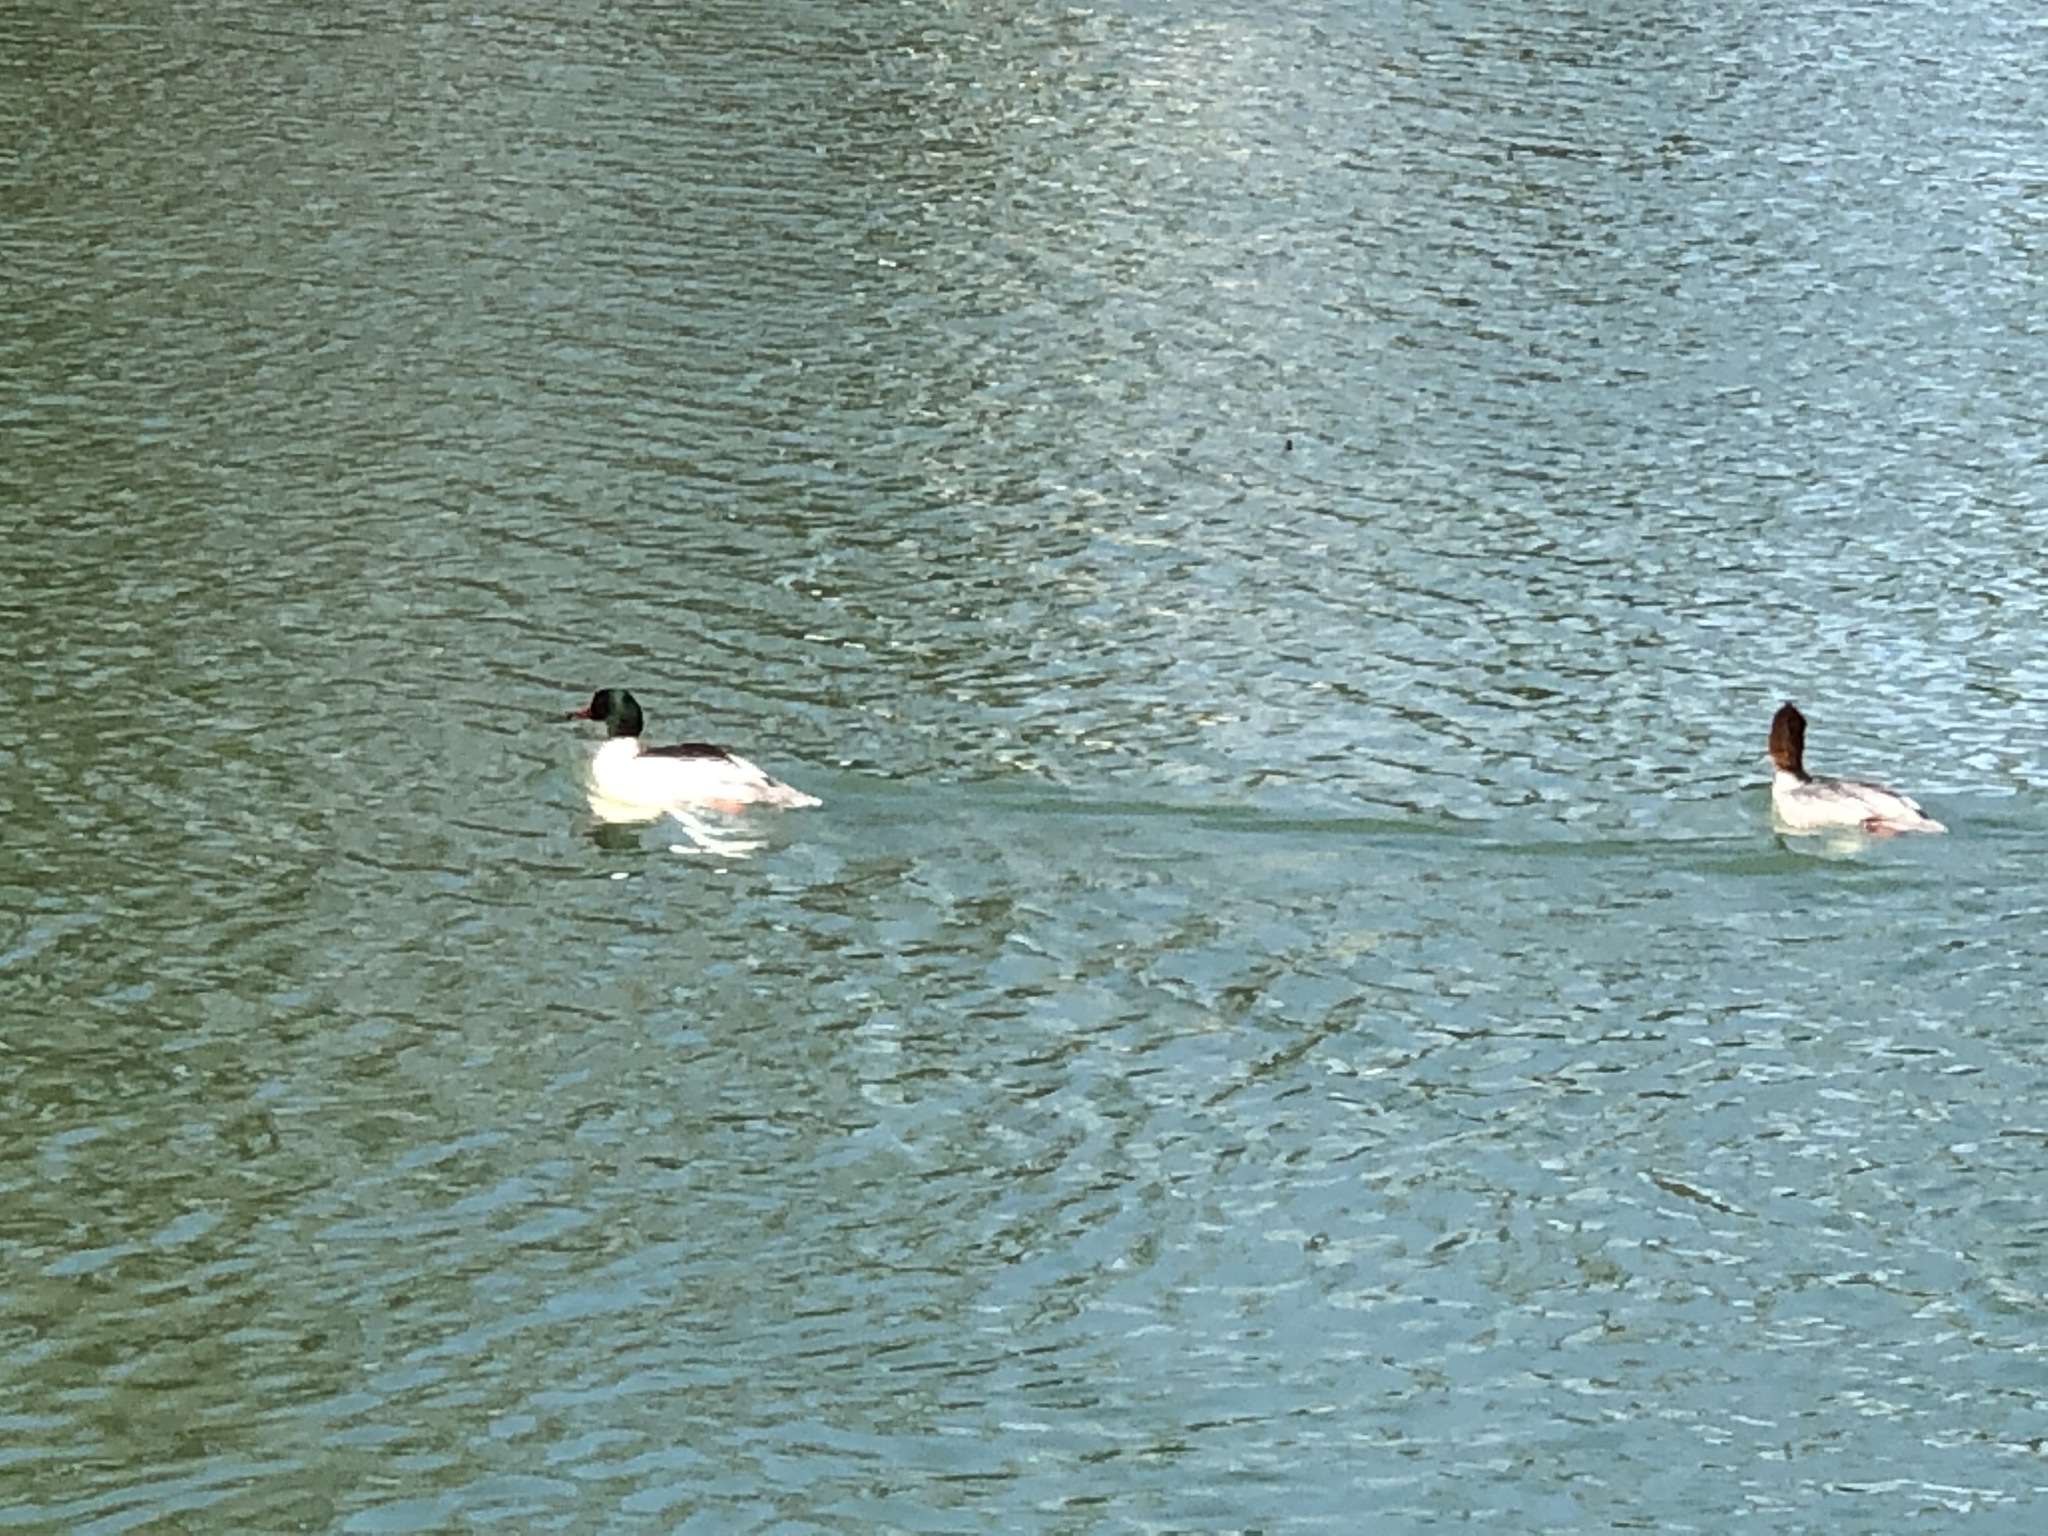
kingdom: Animalia
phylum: Chordata
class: Aves
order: Anseriformes
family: Anatidae
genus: Mergus
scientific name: Mergus merganser
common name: Common merganser
